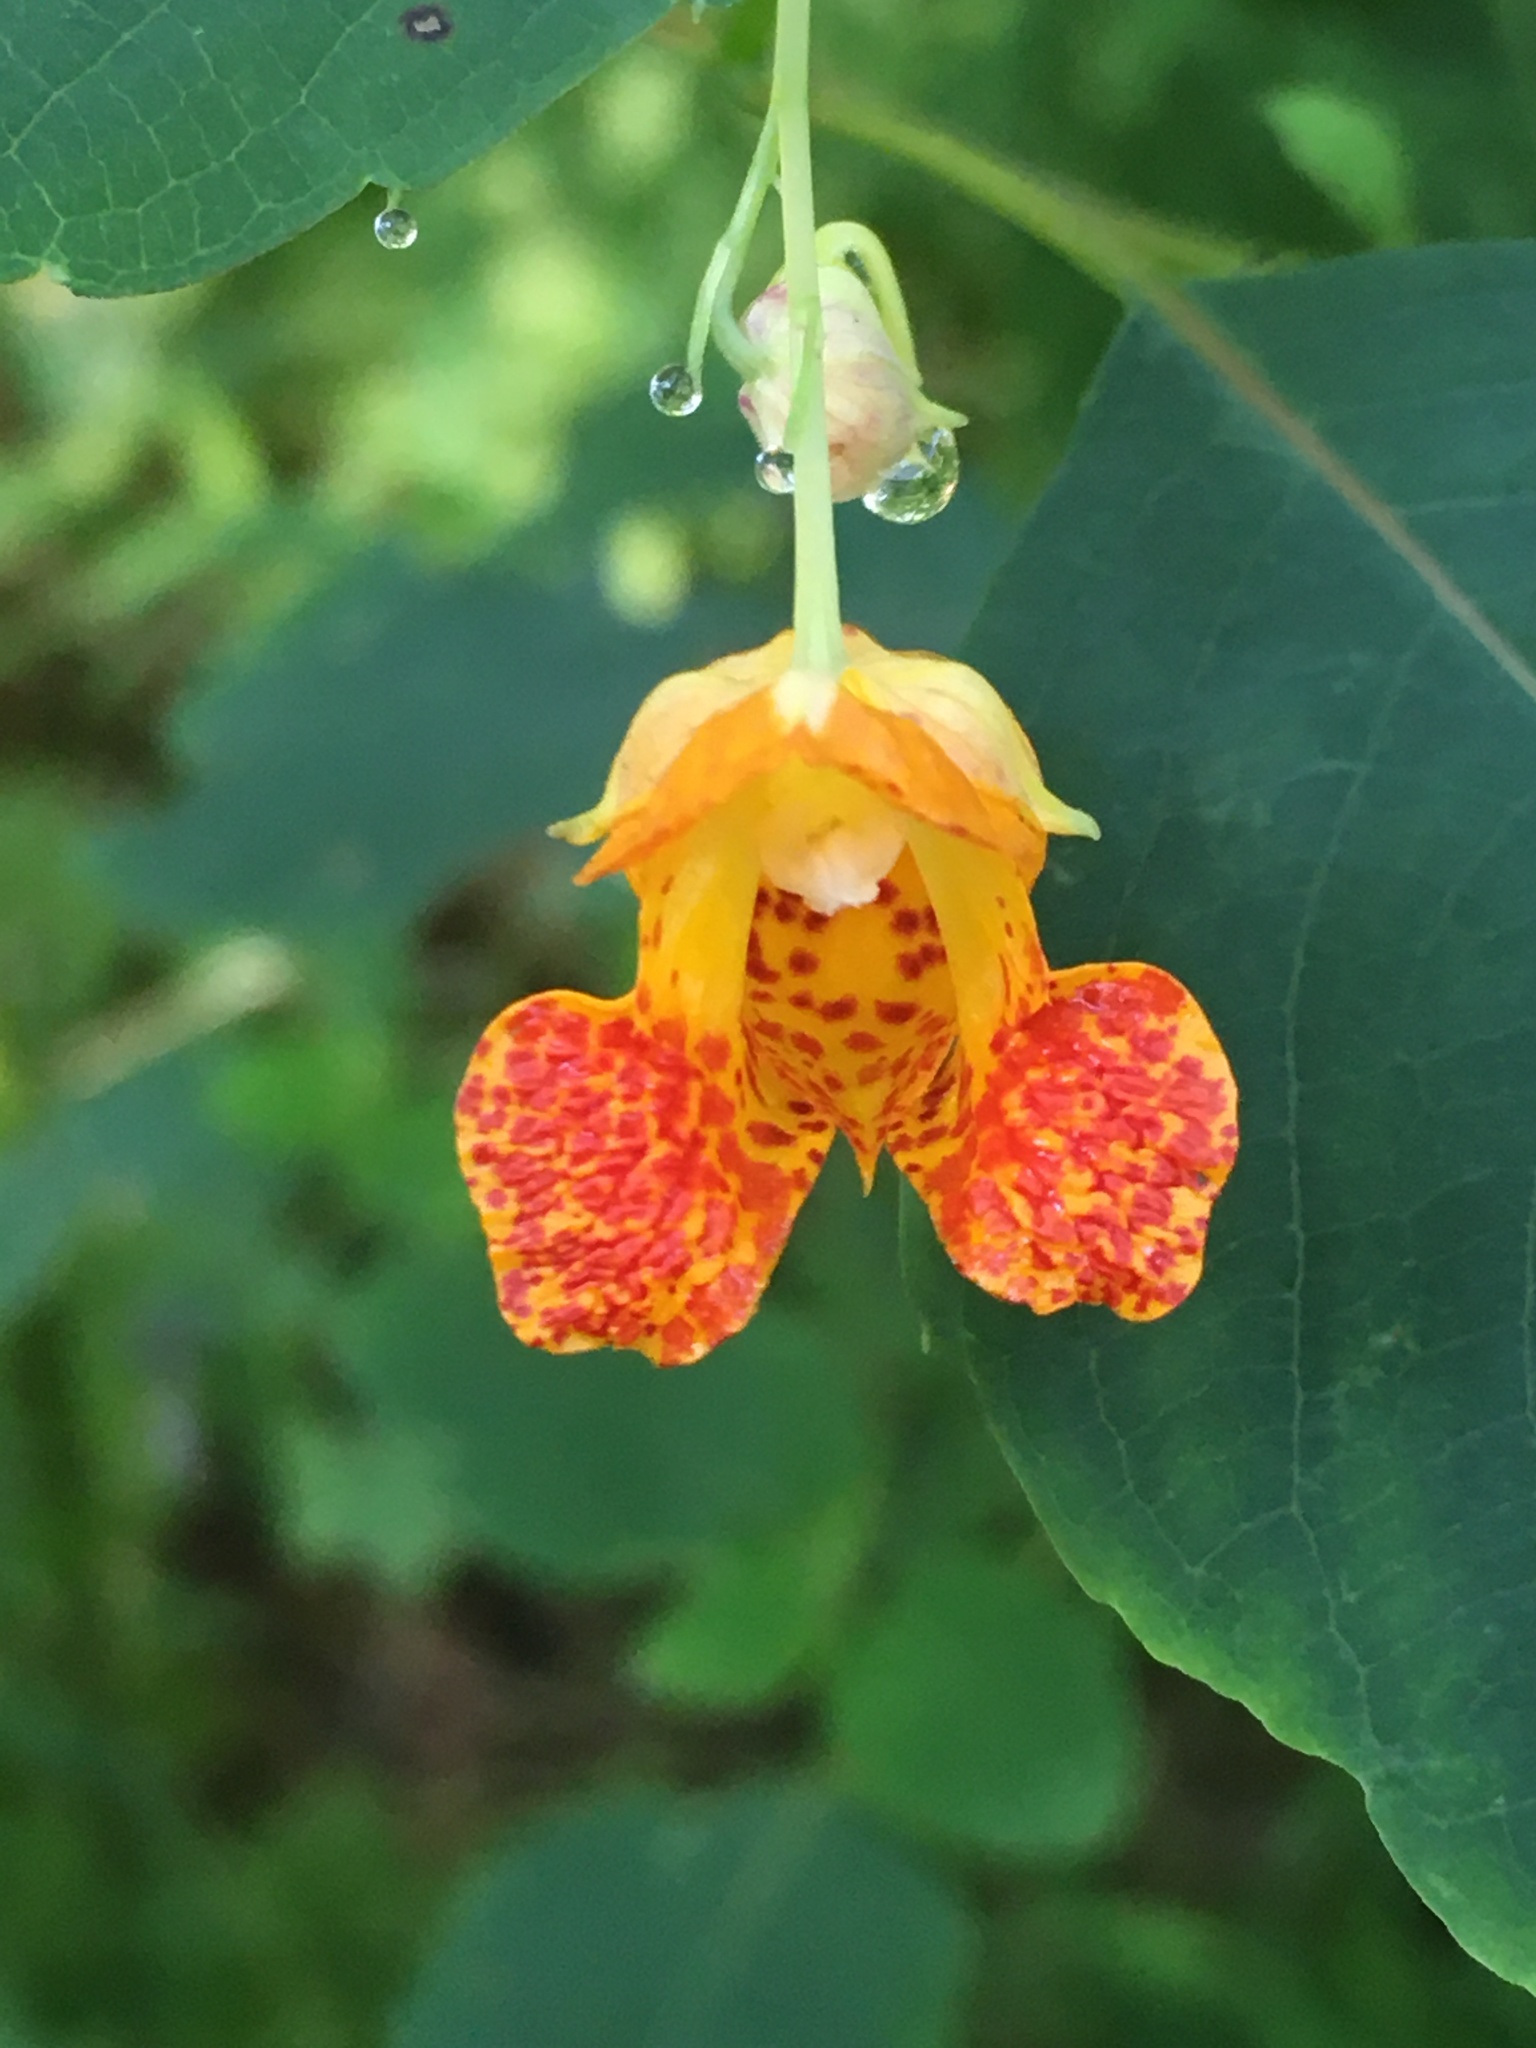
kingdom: Plantae
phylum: Tracheophyta
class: Magnoliopsida
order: Ericales
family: Balsaminaceae
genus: Impatiens
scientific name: Impatiens capensis
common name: Orange balsam
